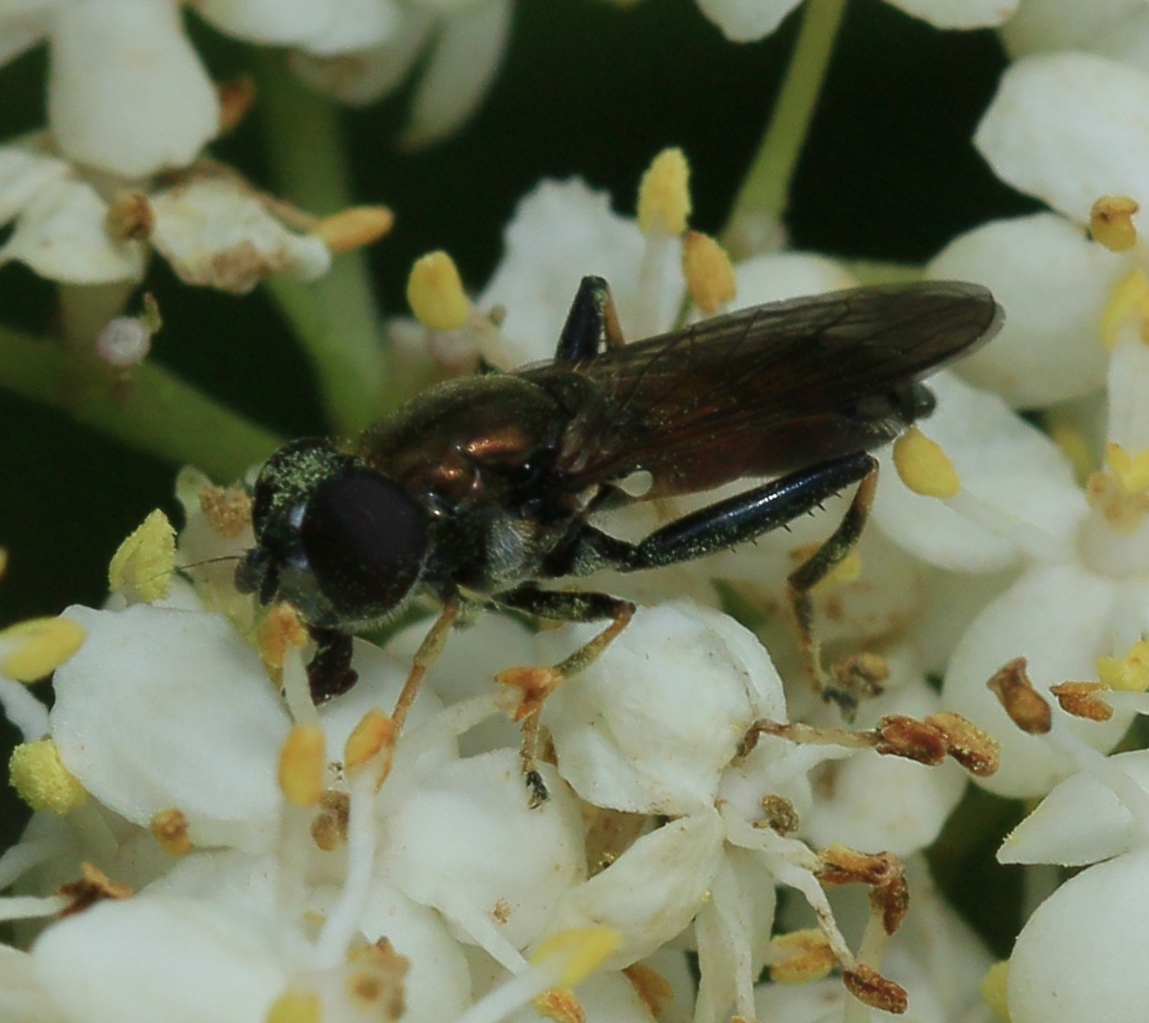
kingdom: Animalia
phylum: Arthropoda
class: Insecta
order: Diptera
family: Syrphidae
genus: Xylota
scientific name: Xylota segnis
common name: Brown-toed forest fly
